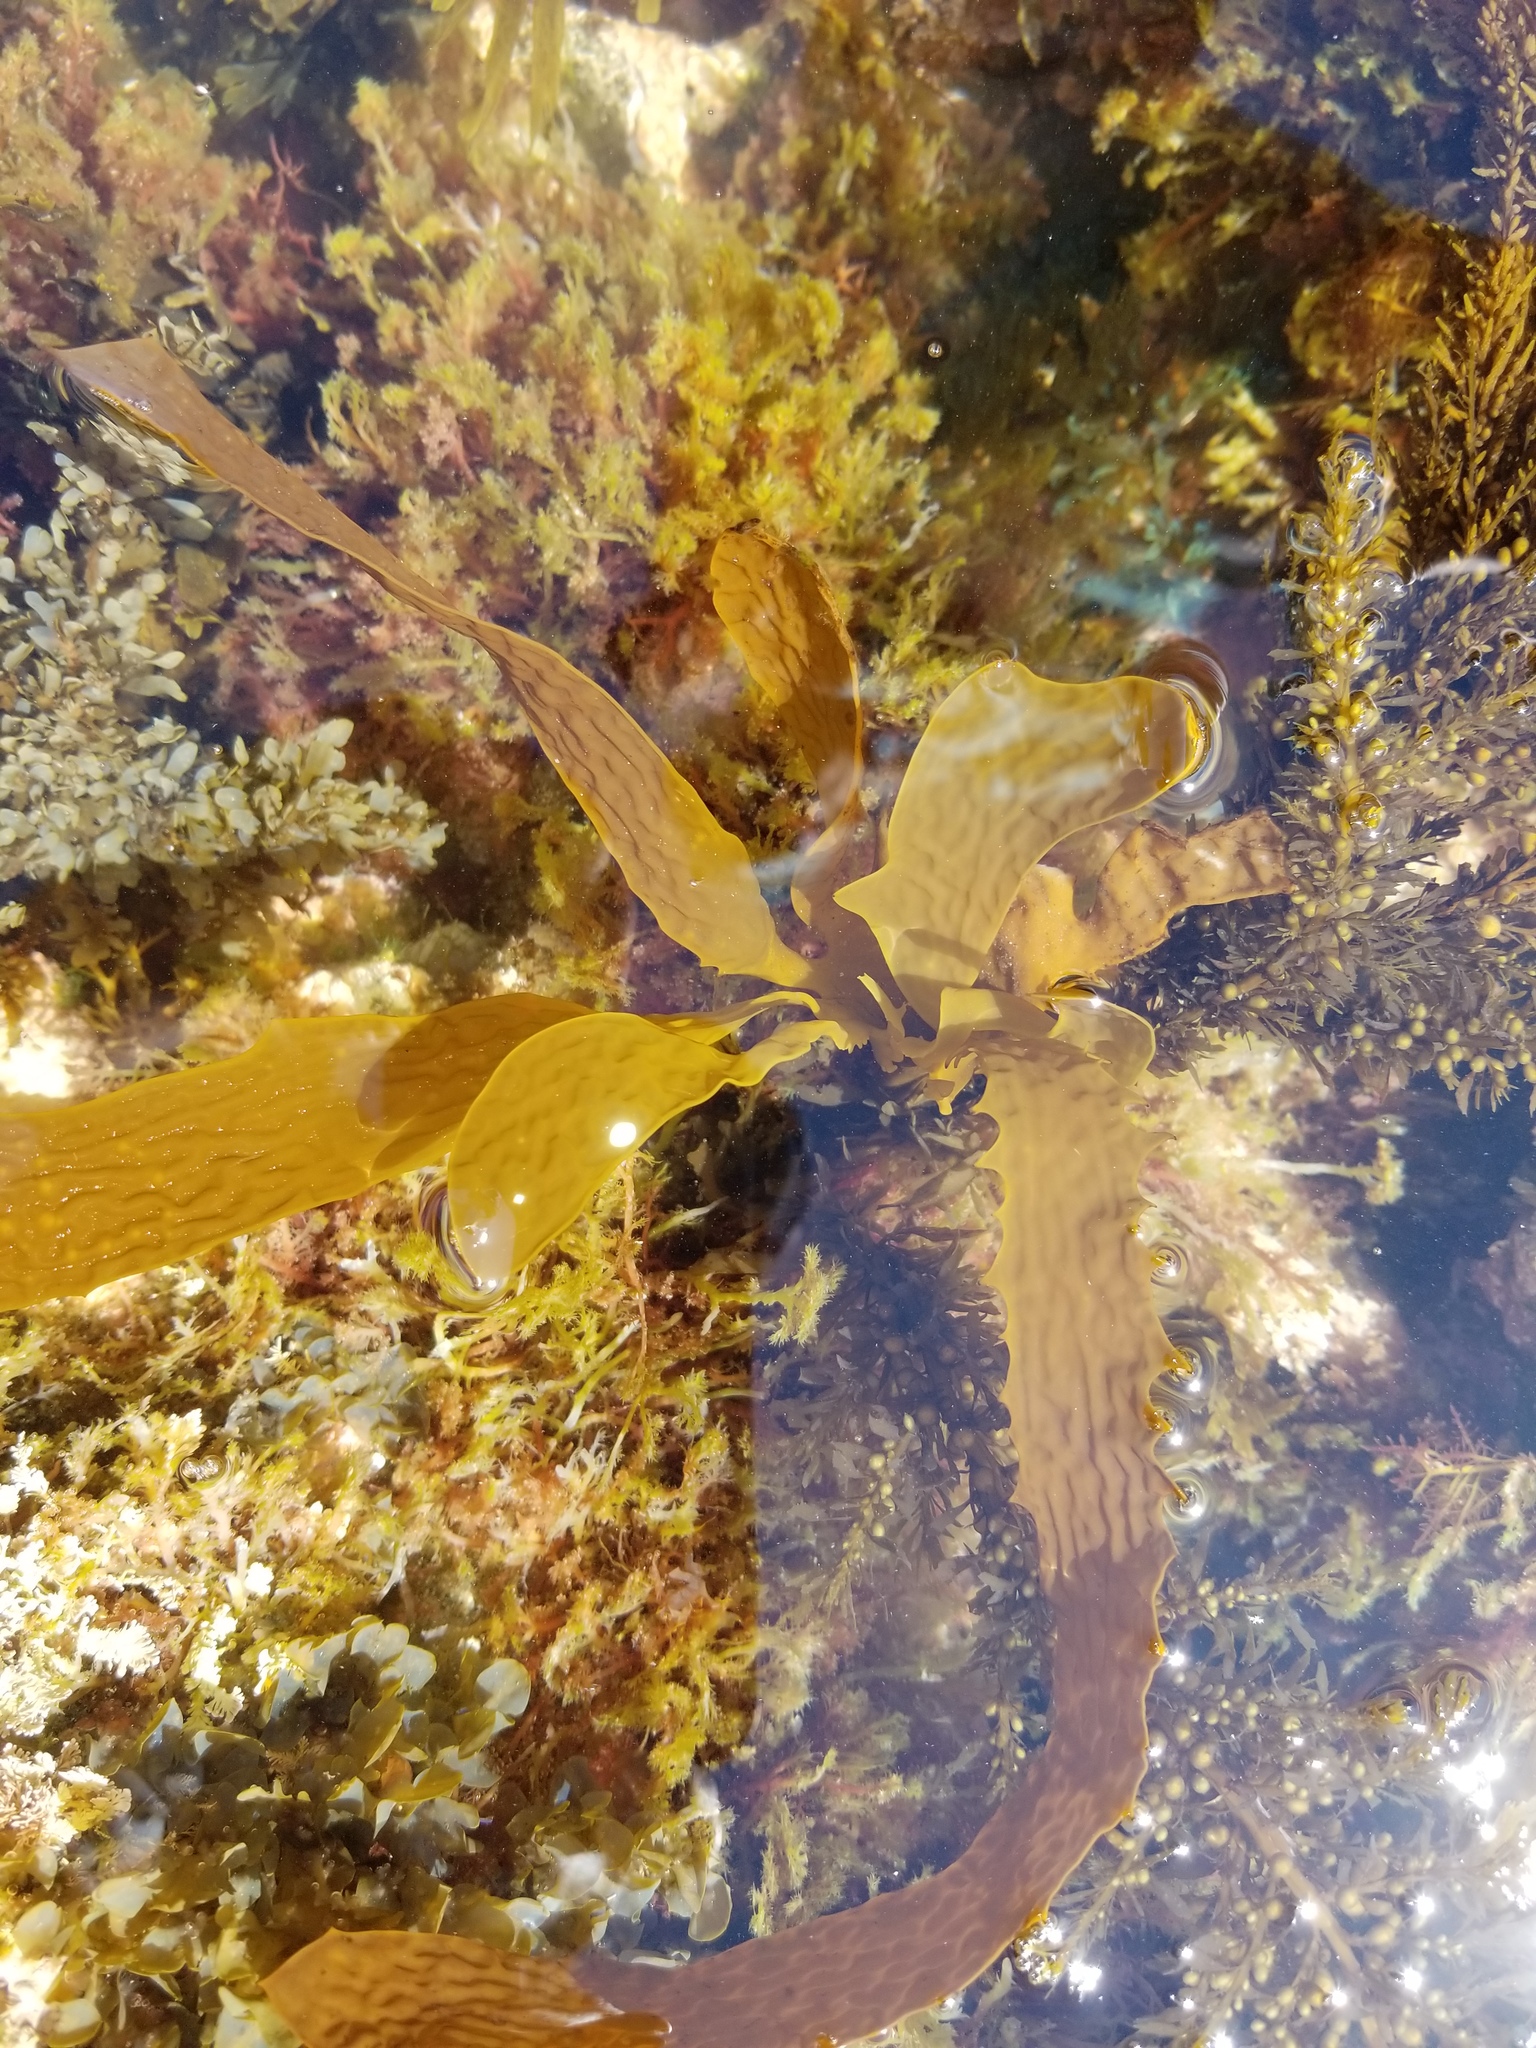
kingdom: Chromista
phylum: Ochrophyta
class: Phaeophyceae
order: Laminariales
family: Lessoniaceae
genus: Eisenia
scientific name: Eisenia arborea
